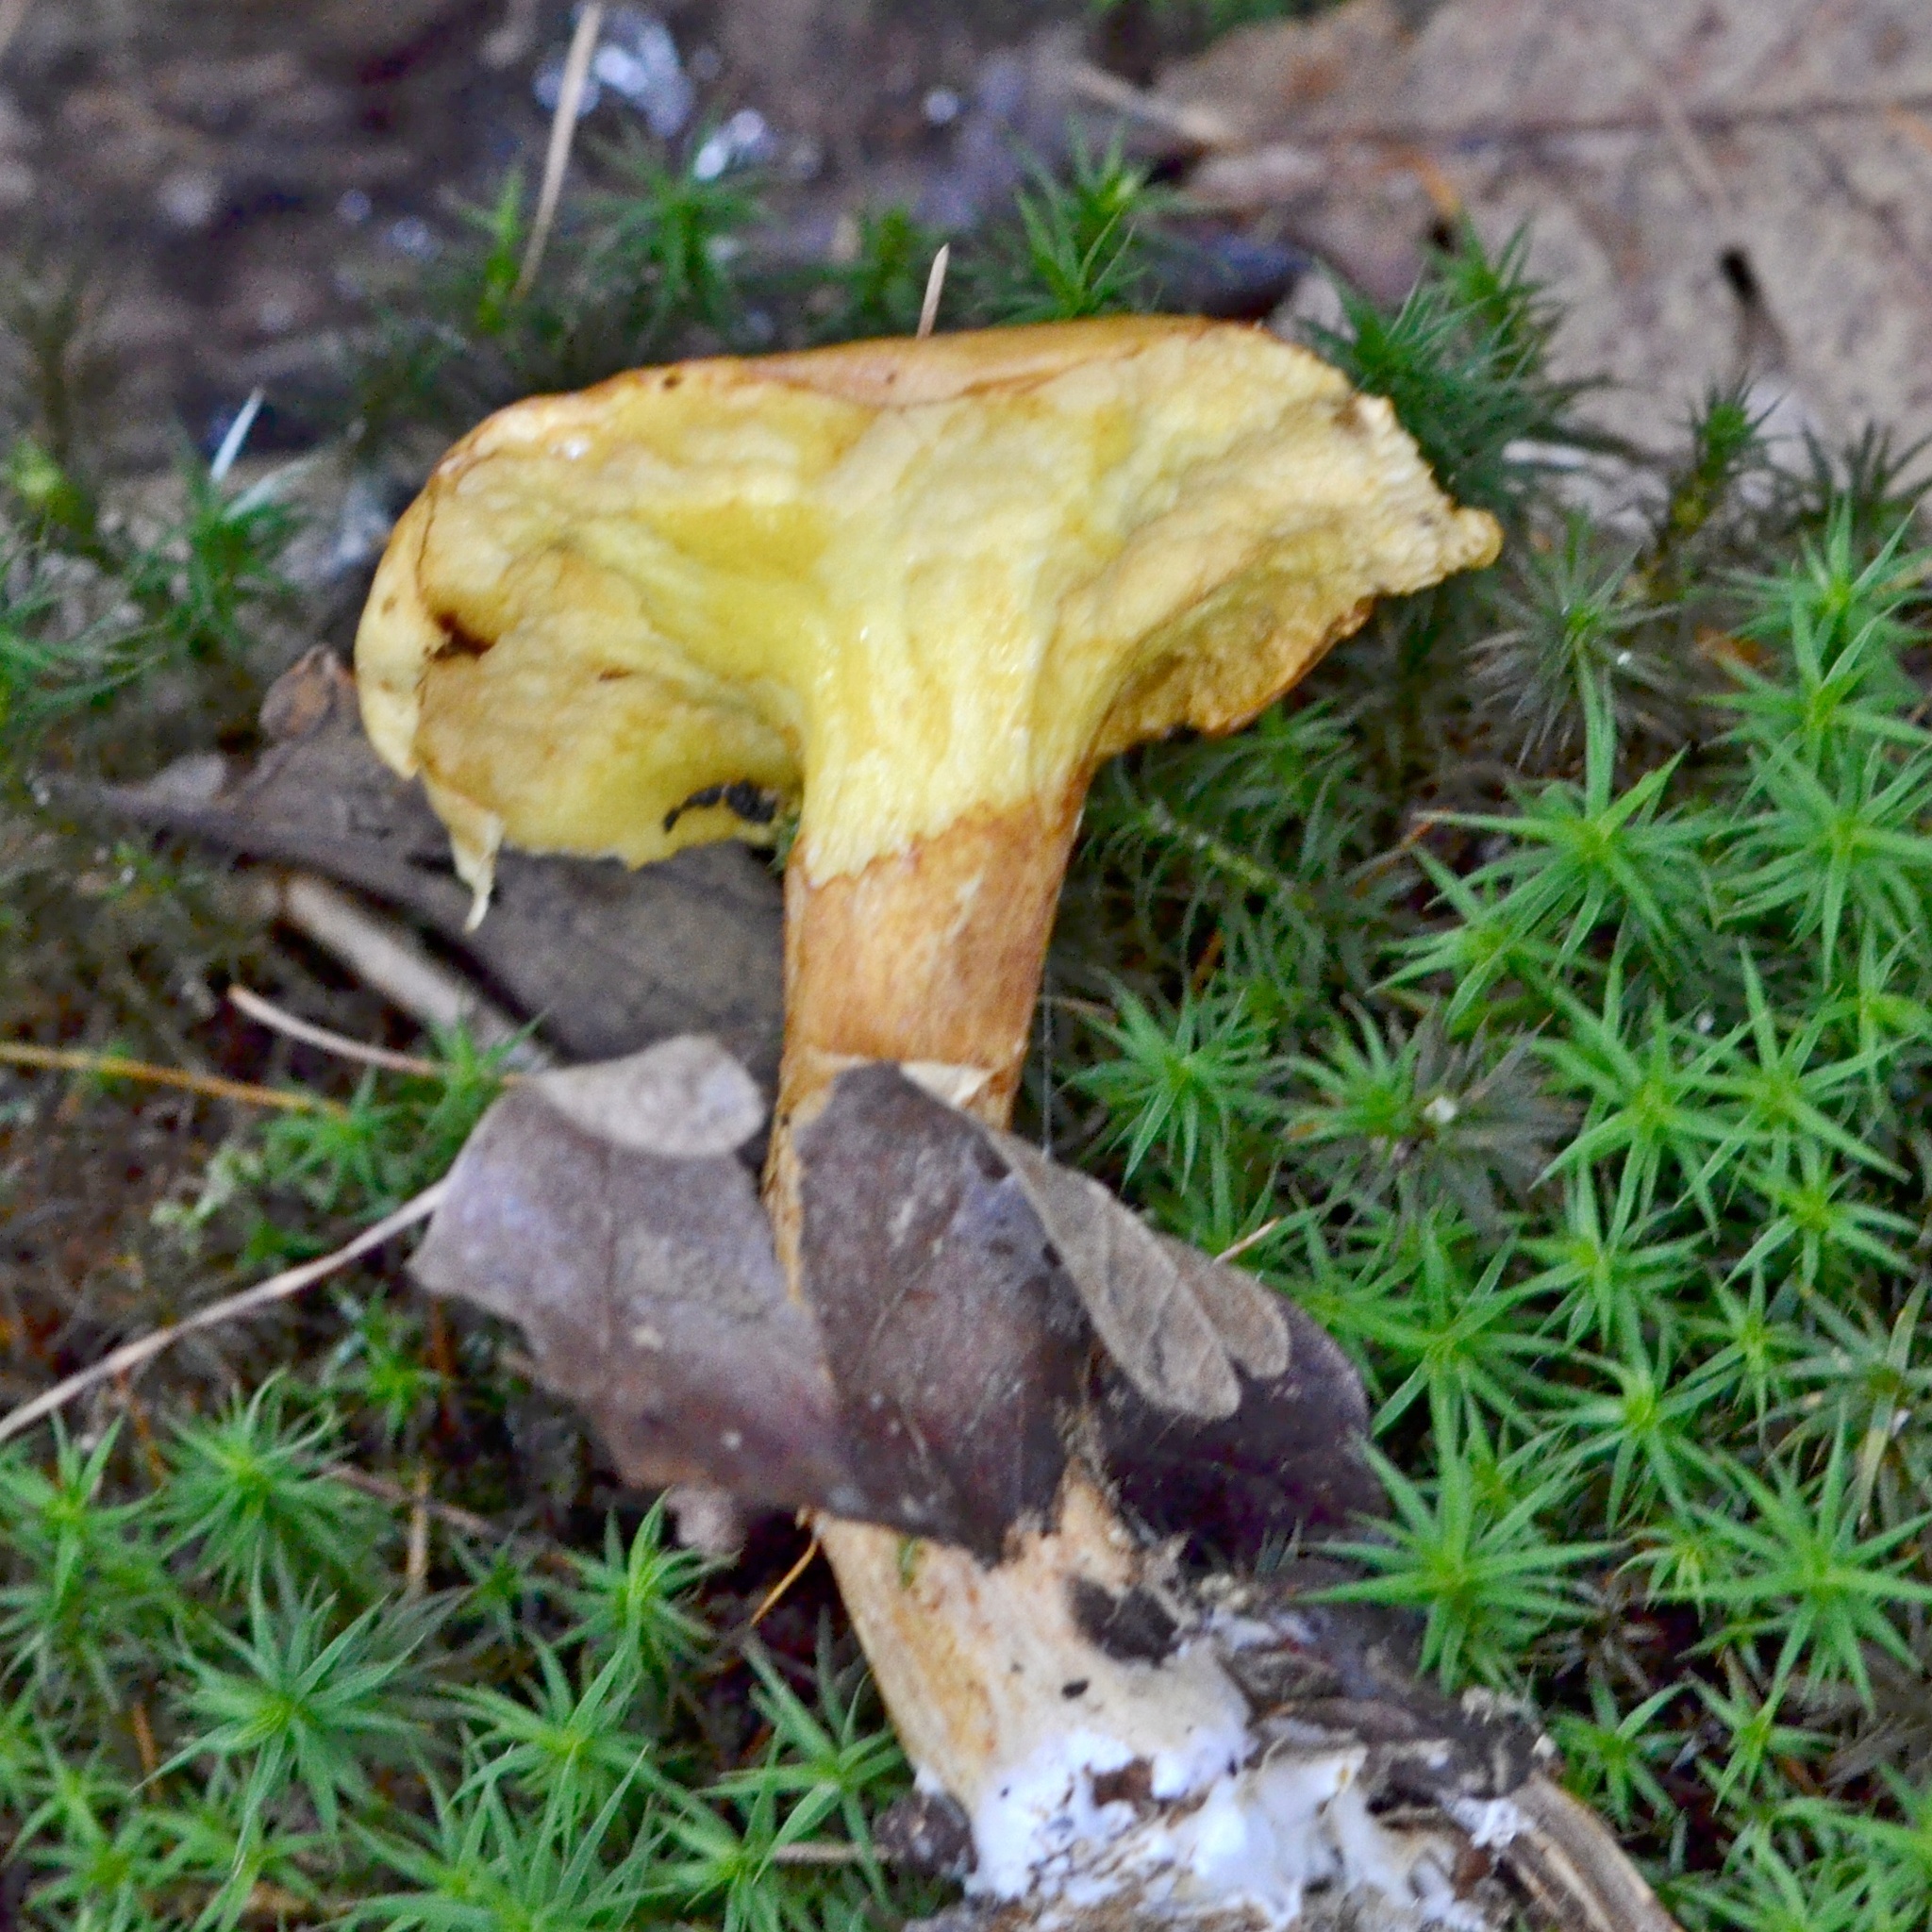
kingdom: Fungi
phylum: Basidiomycota
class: Agaricomycetes
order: Boletales
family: Suillaceae
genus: Suillus
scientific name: Suillus grevillei
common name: Larch bolete
